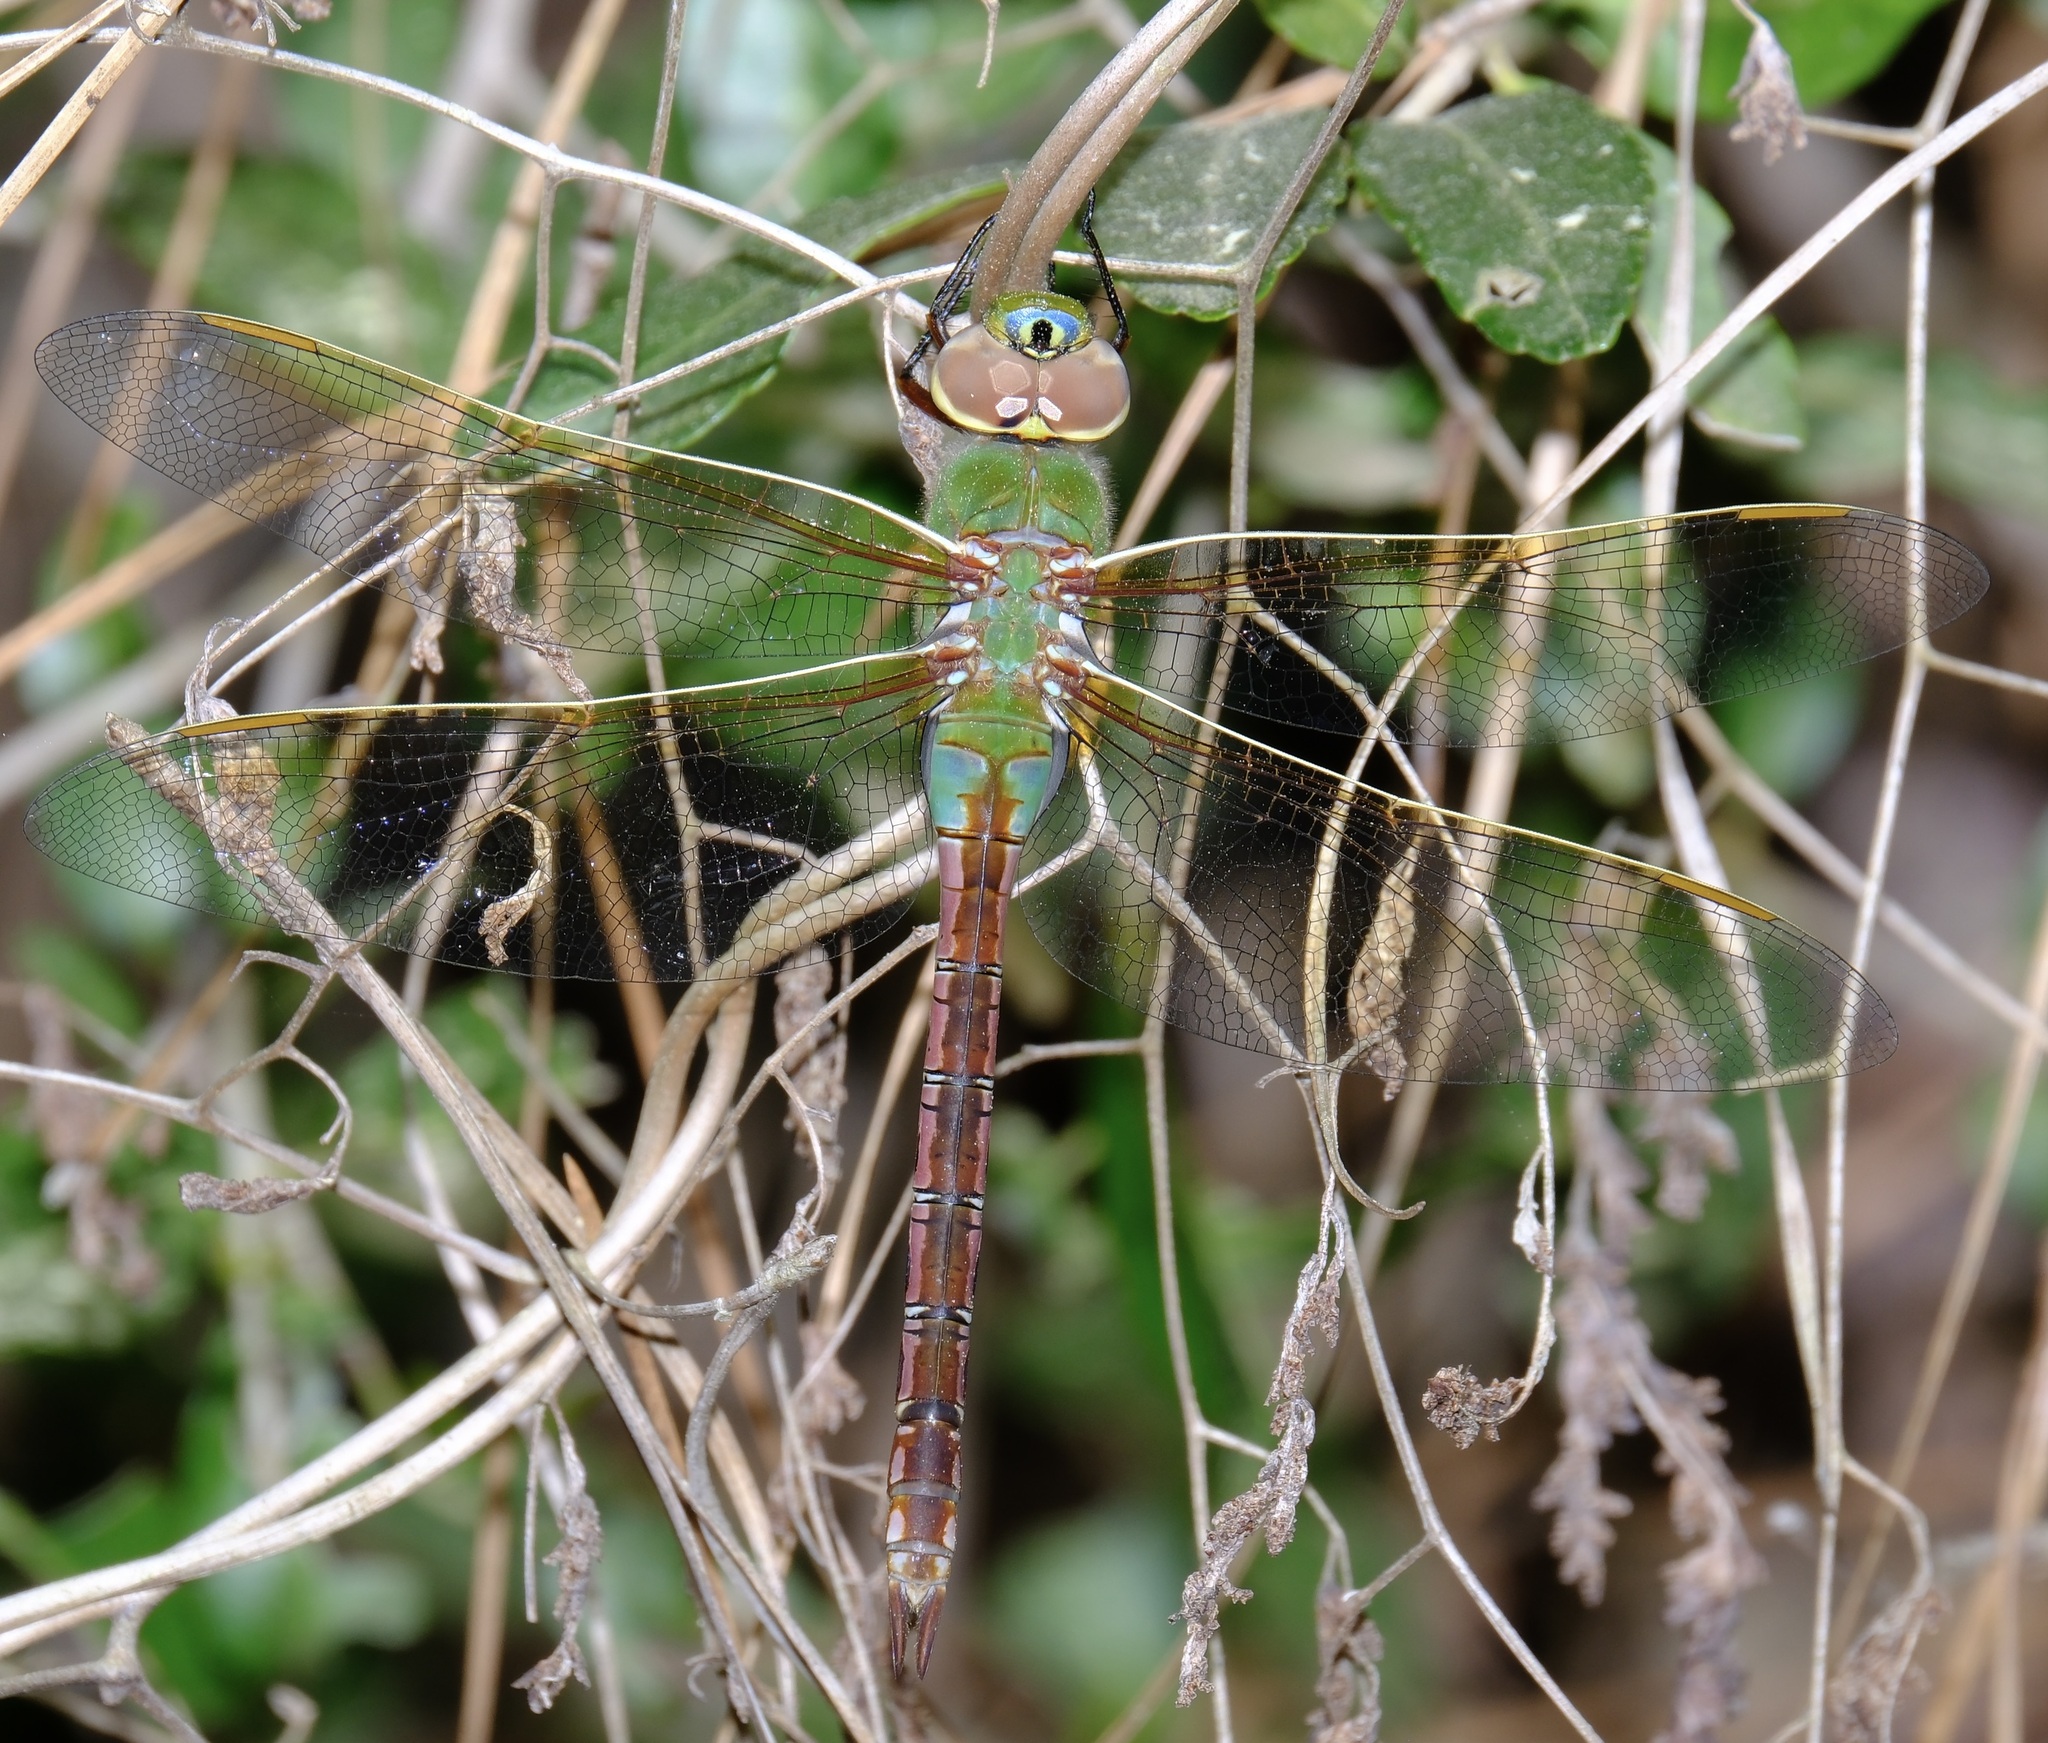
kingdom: Animalia
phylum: Arthropoda
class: Insecta
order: Odonata
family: Aeshnidae
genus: Anax
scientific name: Anax junius
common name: Common green darner
